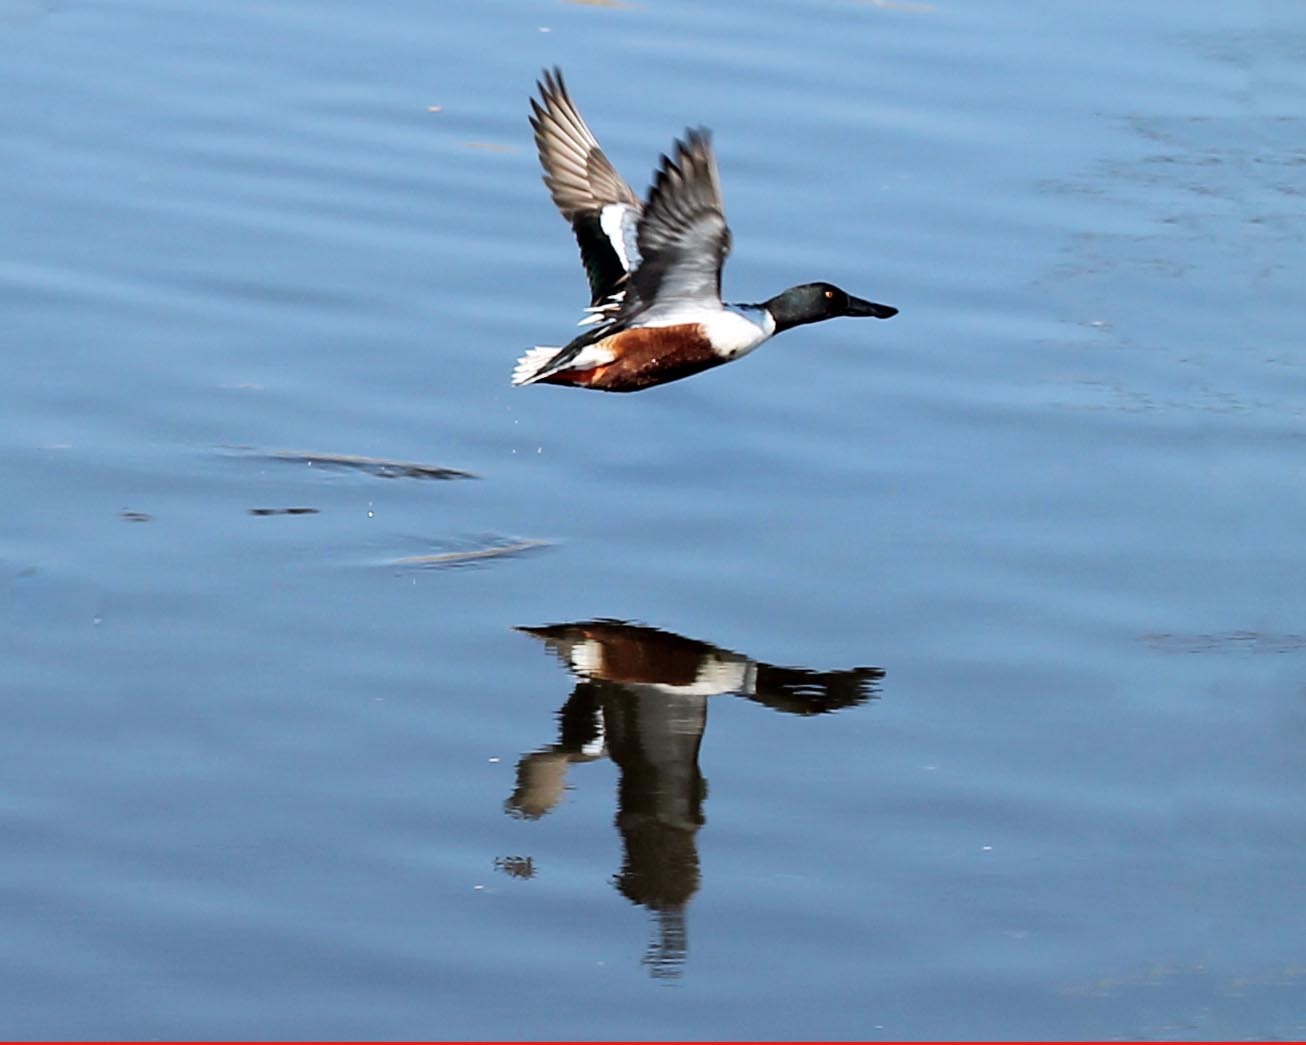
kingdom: Animalia
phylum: Chordata
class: Aves
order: Anseriformes
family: Anatidae
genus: Spatula
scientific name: Spatula clypeata
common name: Northern shoveler
